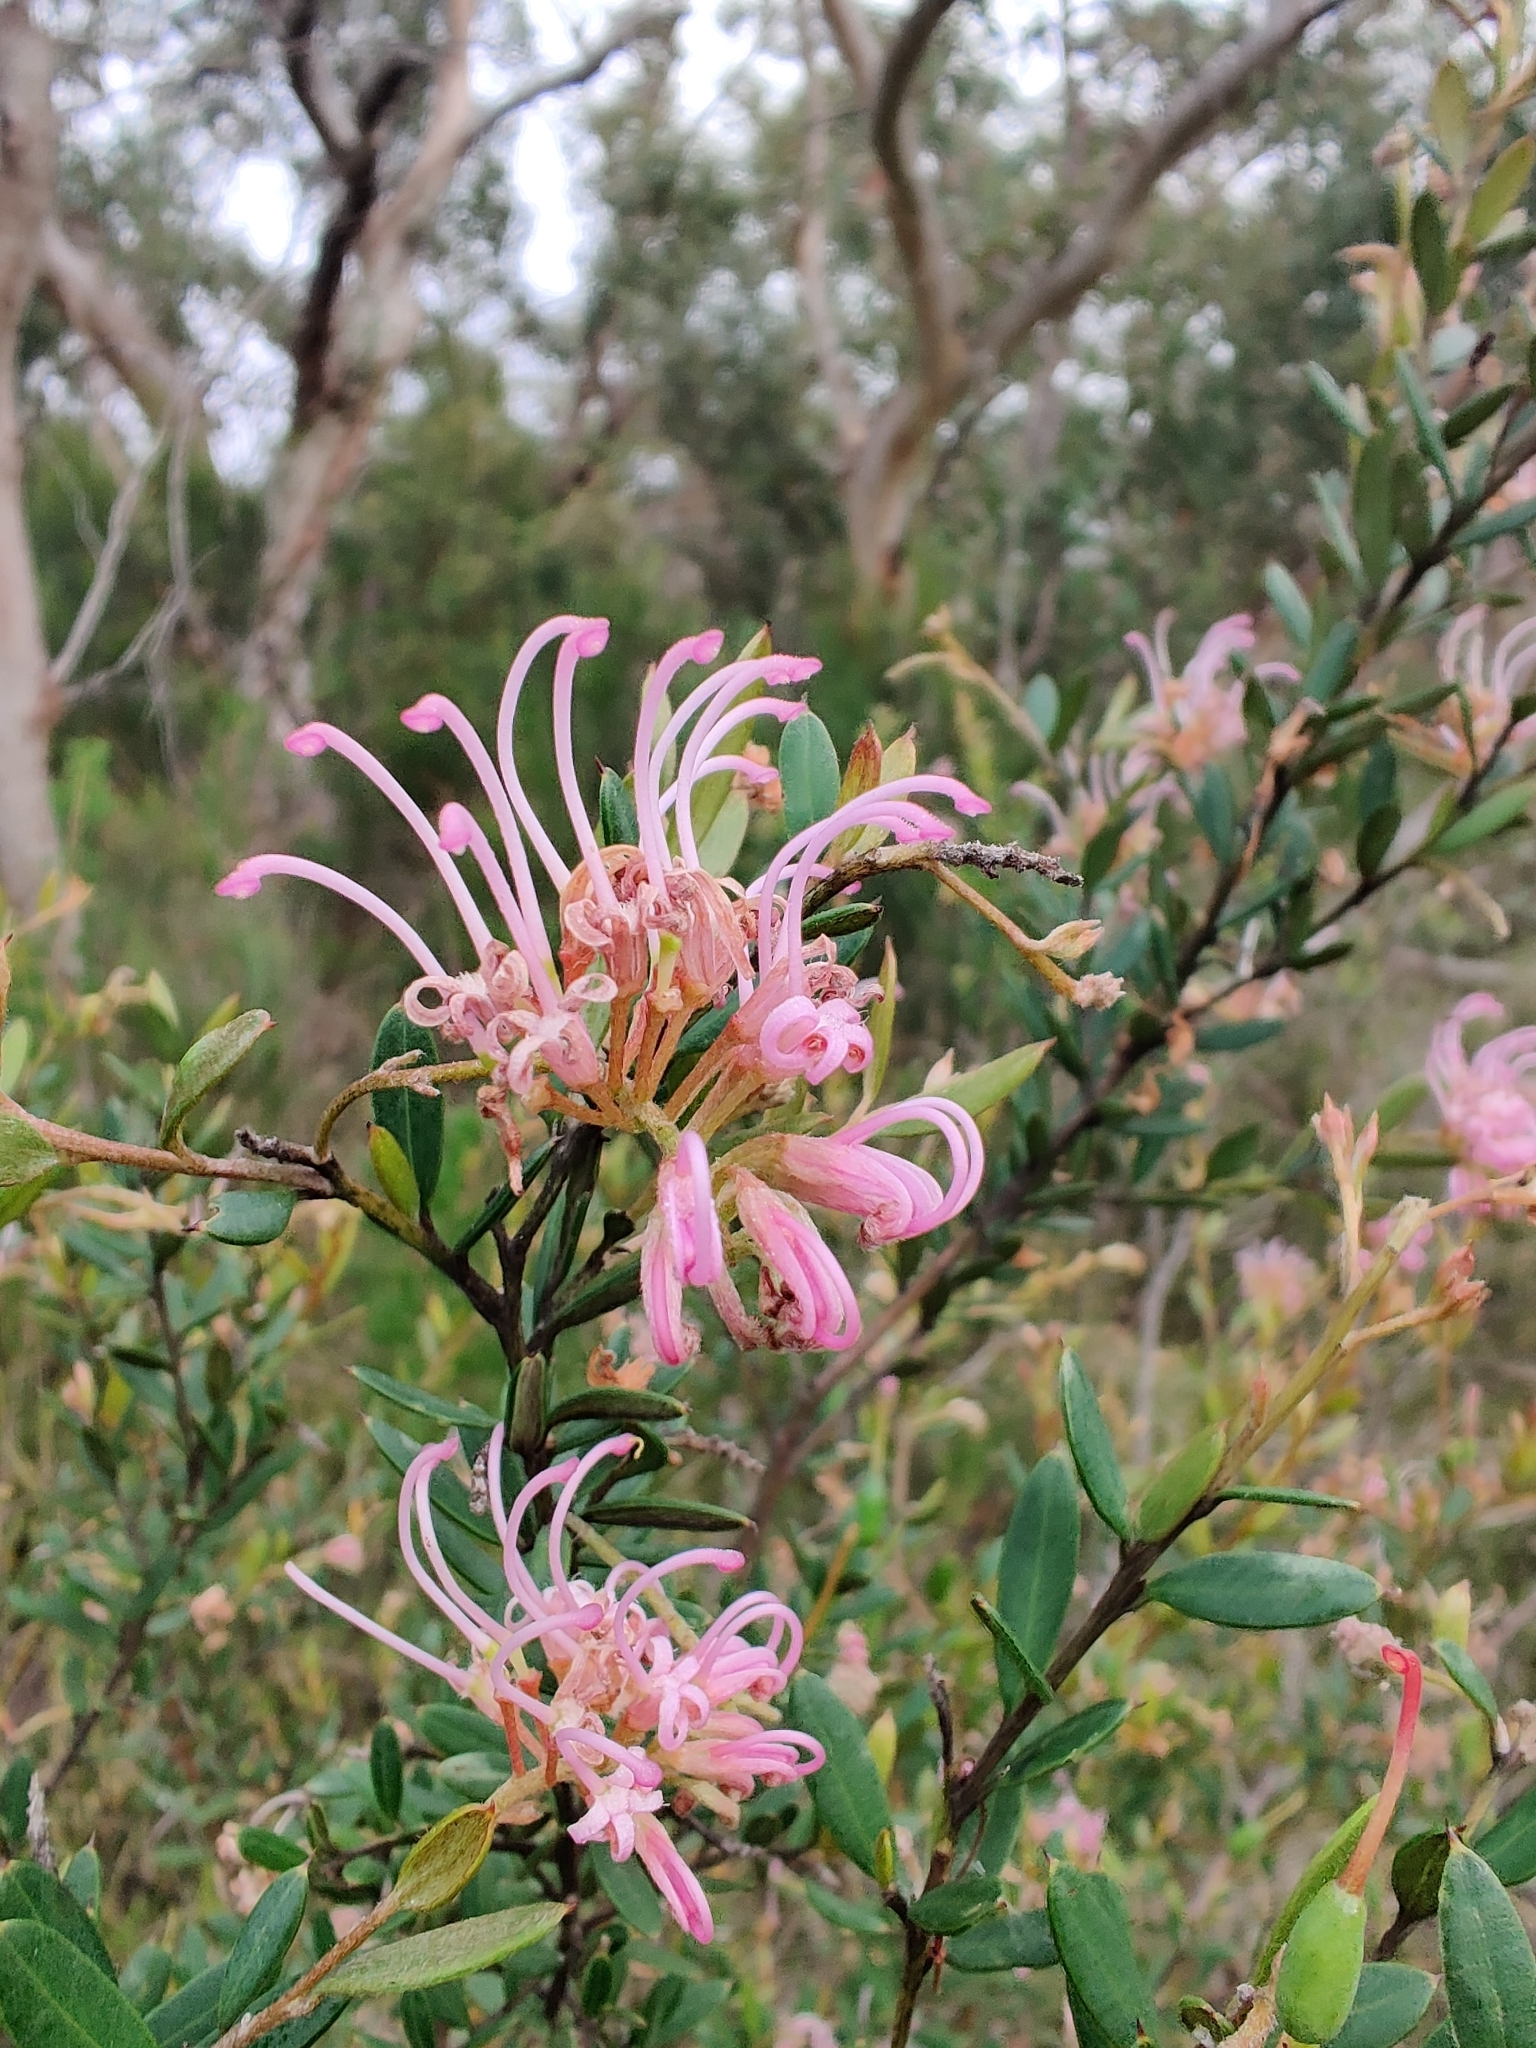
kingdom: Plantae
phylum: Tracheophyta
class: Magnoliopsida
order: Proteales
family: Proteaceae
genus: Grevillea
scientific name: Grevillea sericea
